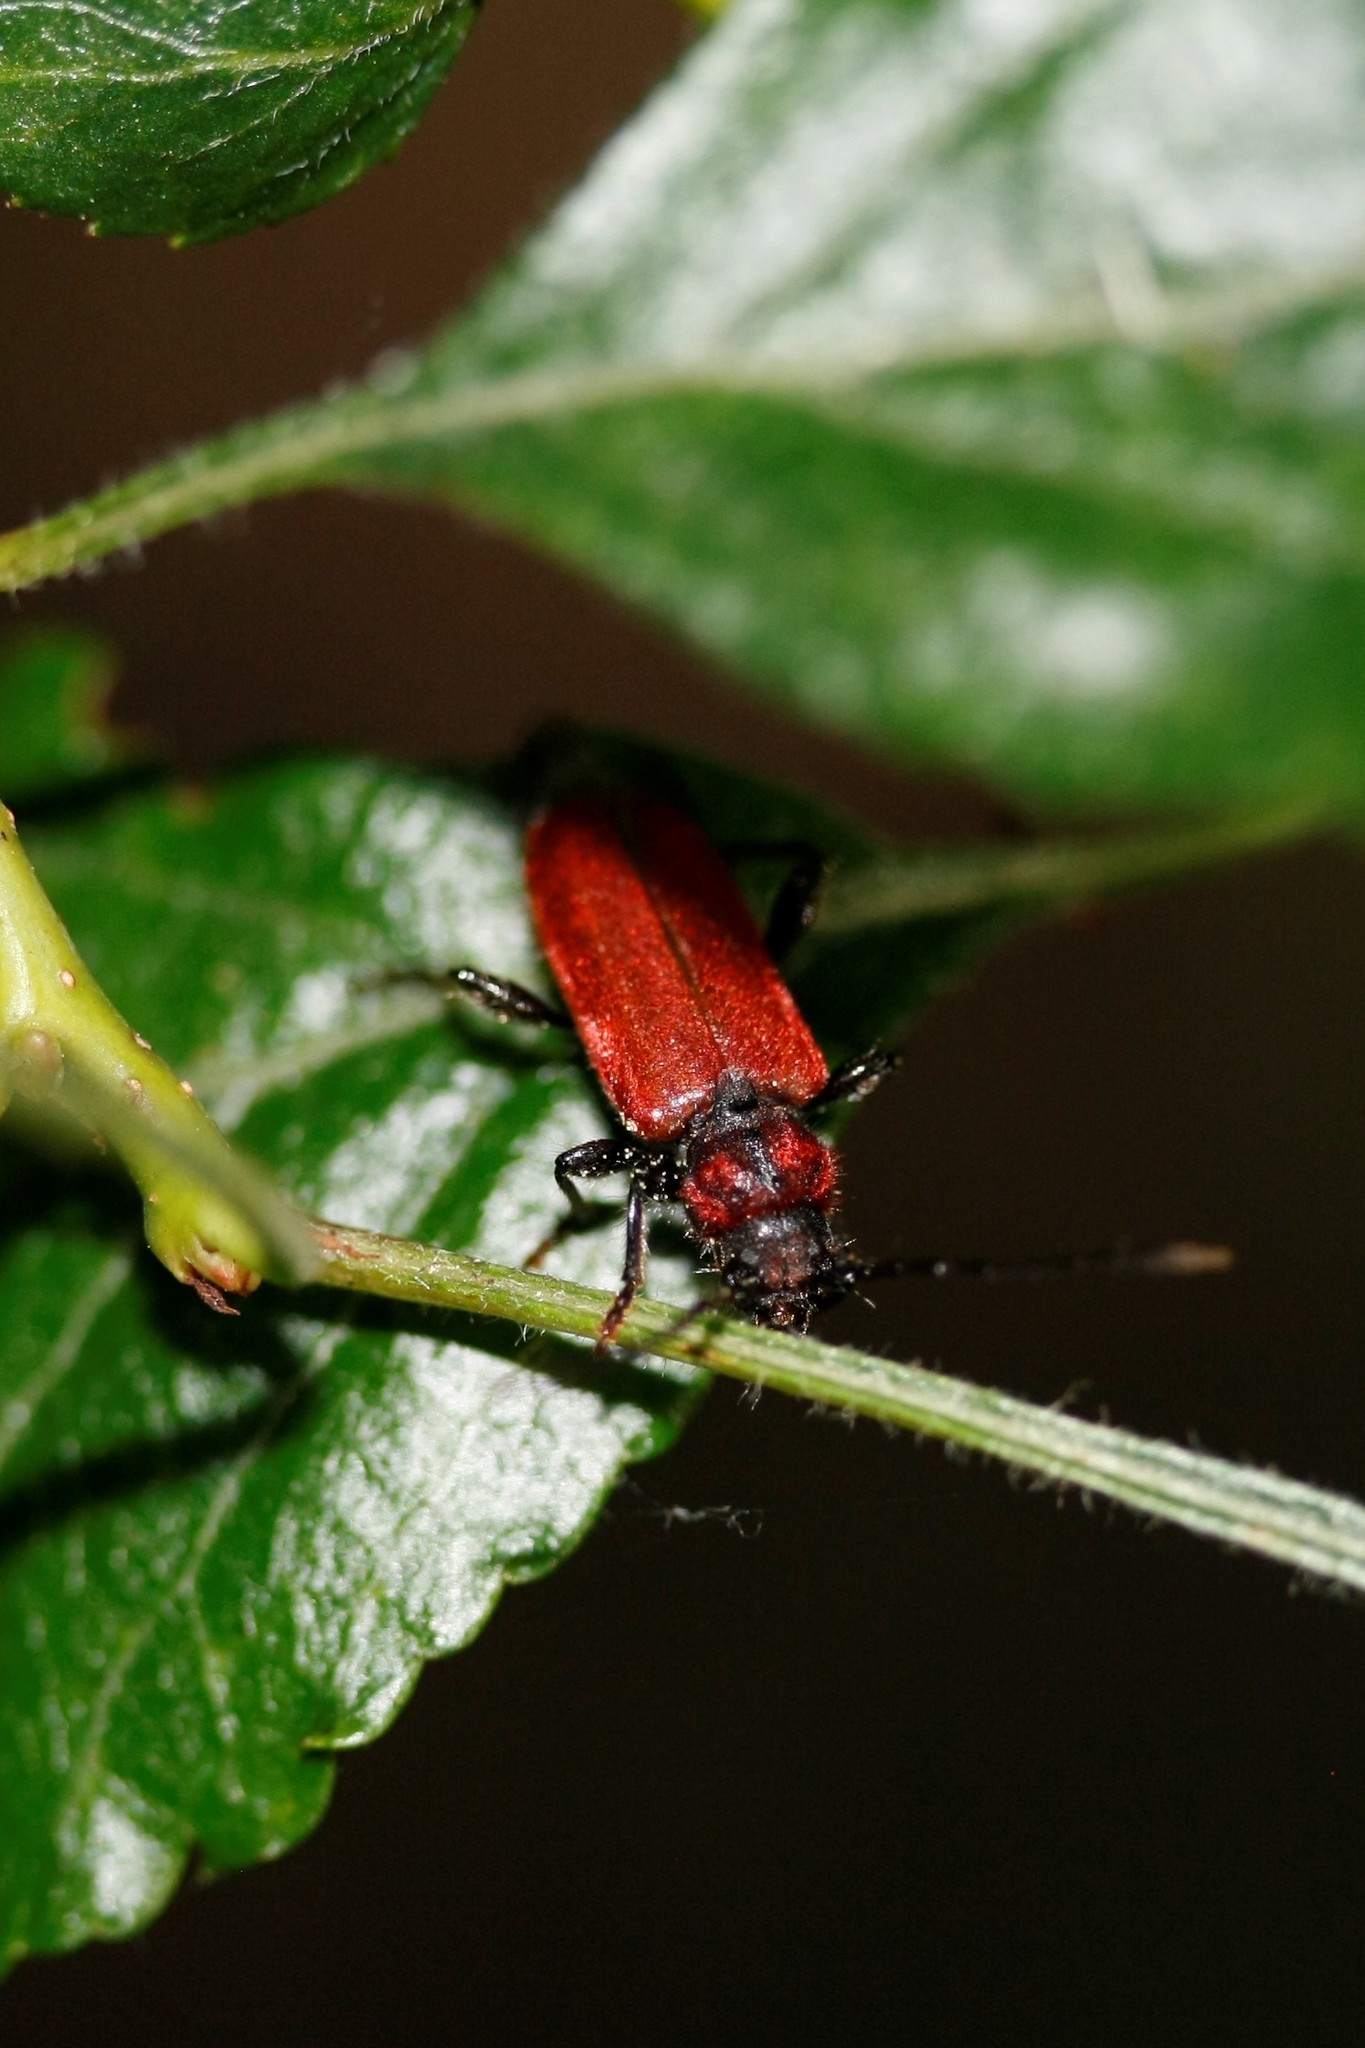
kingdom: Animalia
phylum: Arthropoda
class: Insecta
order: Coleoptera
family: Cerambycidae
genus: Pyrrhidium
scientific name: Pyrrhidium sanguineum
